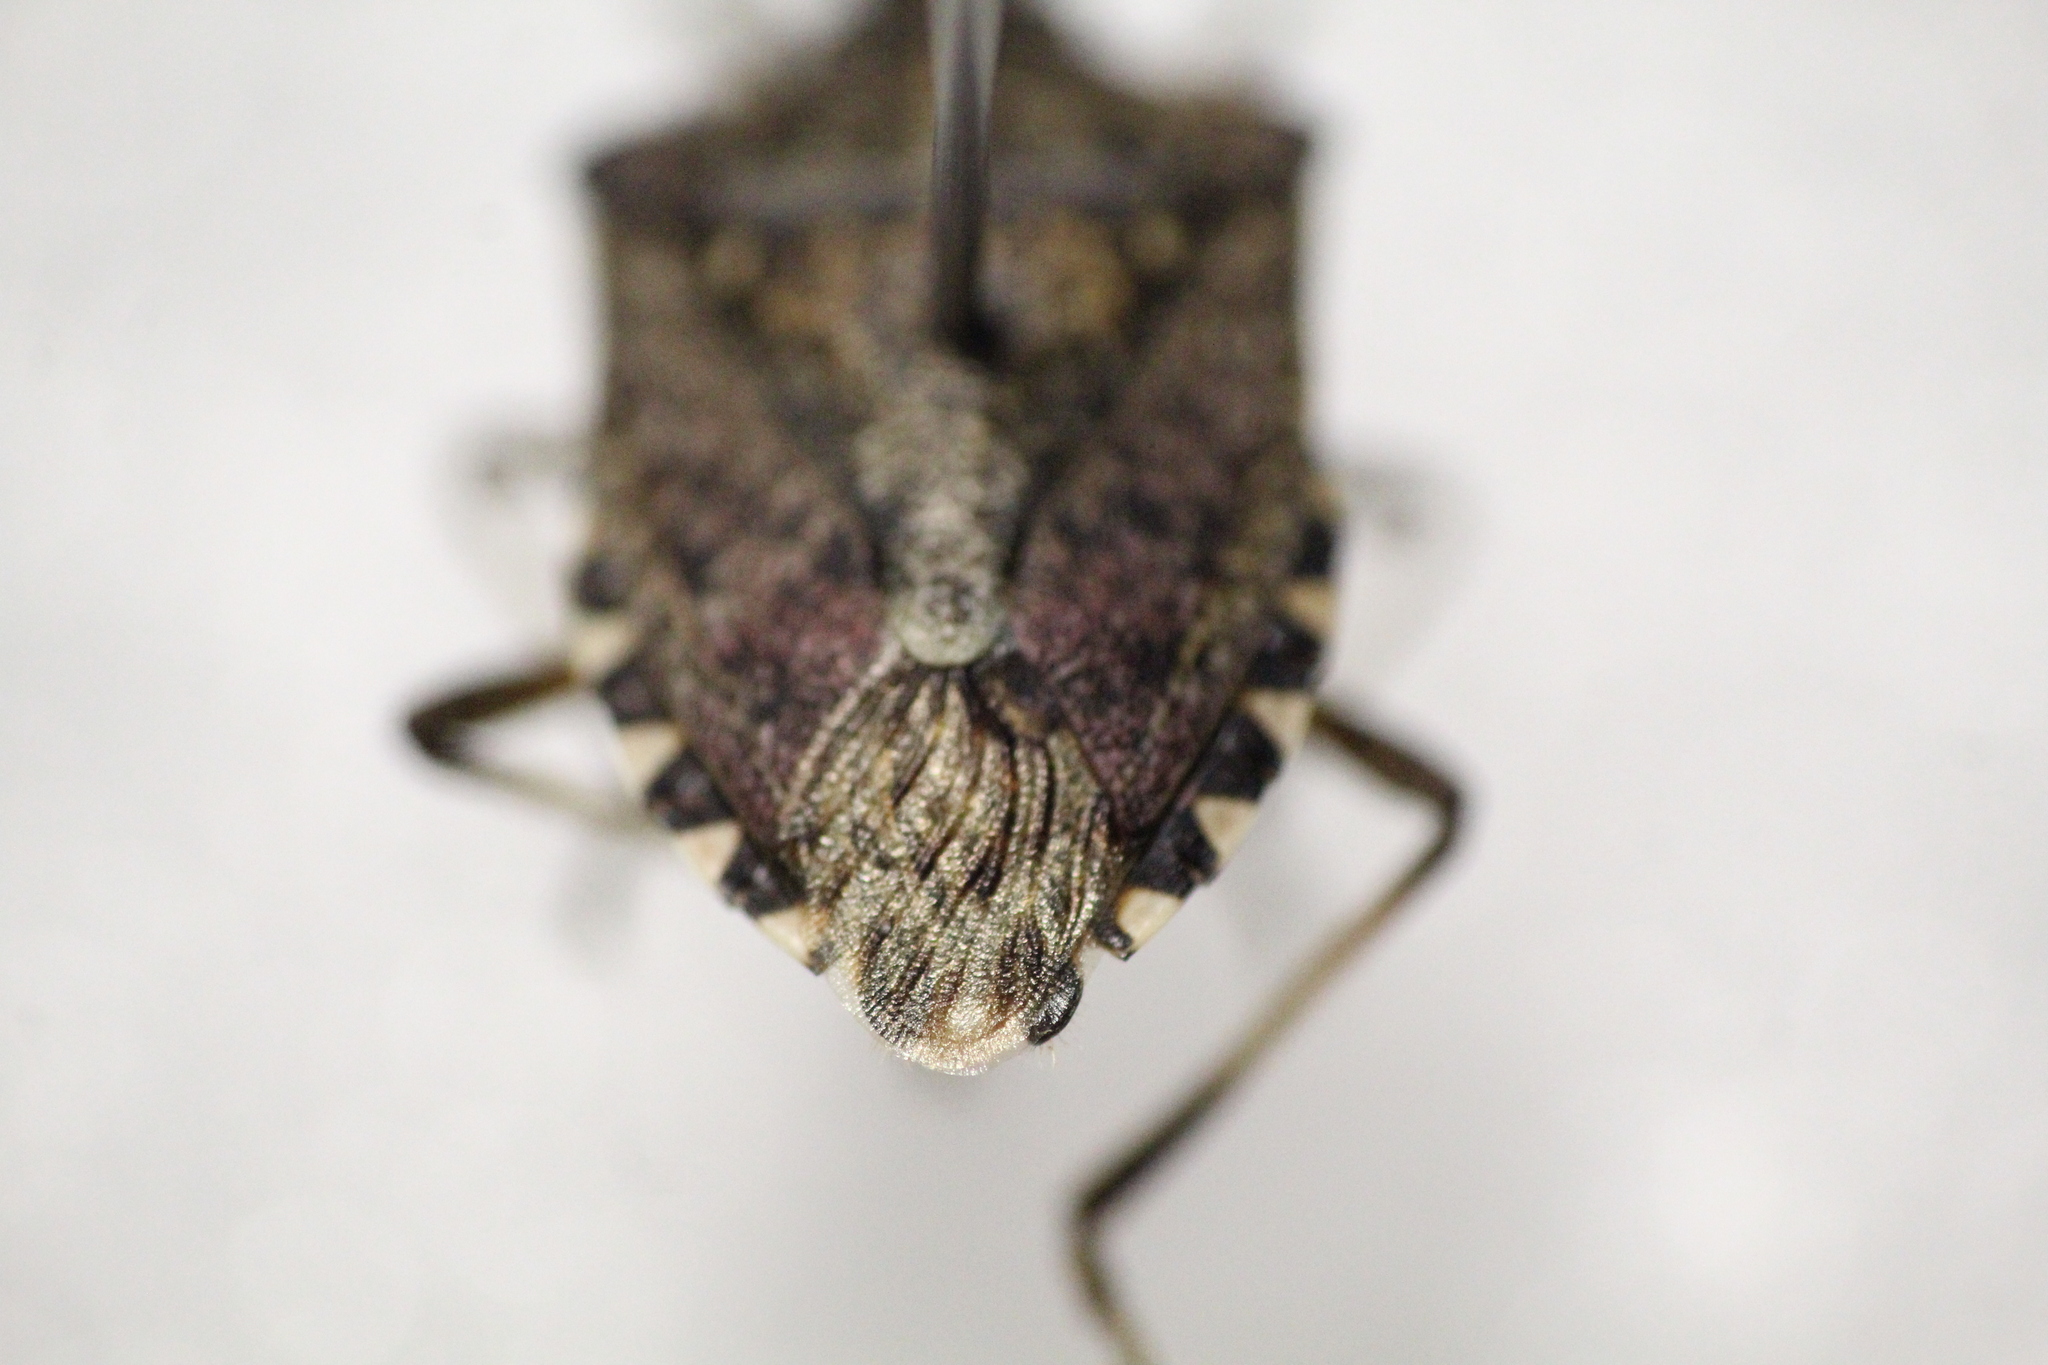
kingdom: Animalia
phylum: Arthropoda
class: Insecta
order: Hemiptera
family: Pentatomidae
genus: Halyomorpha
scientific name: Halyomorpha halys
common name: Brown marmorated stink bug
